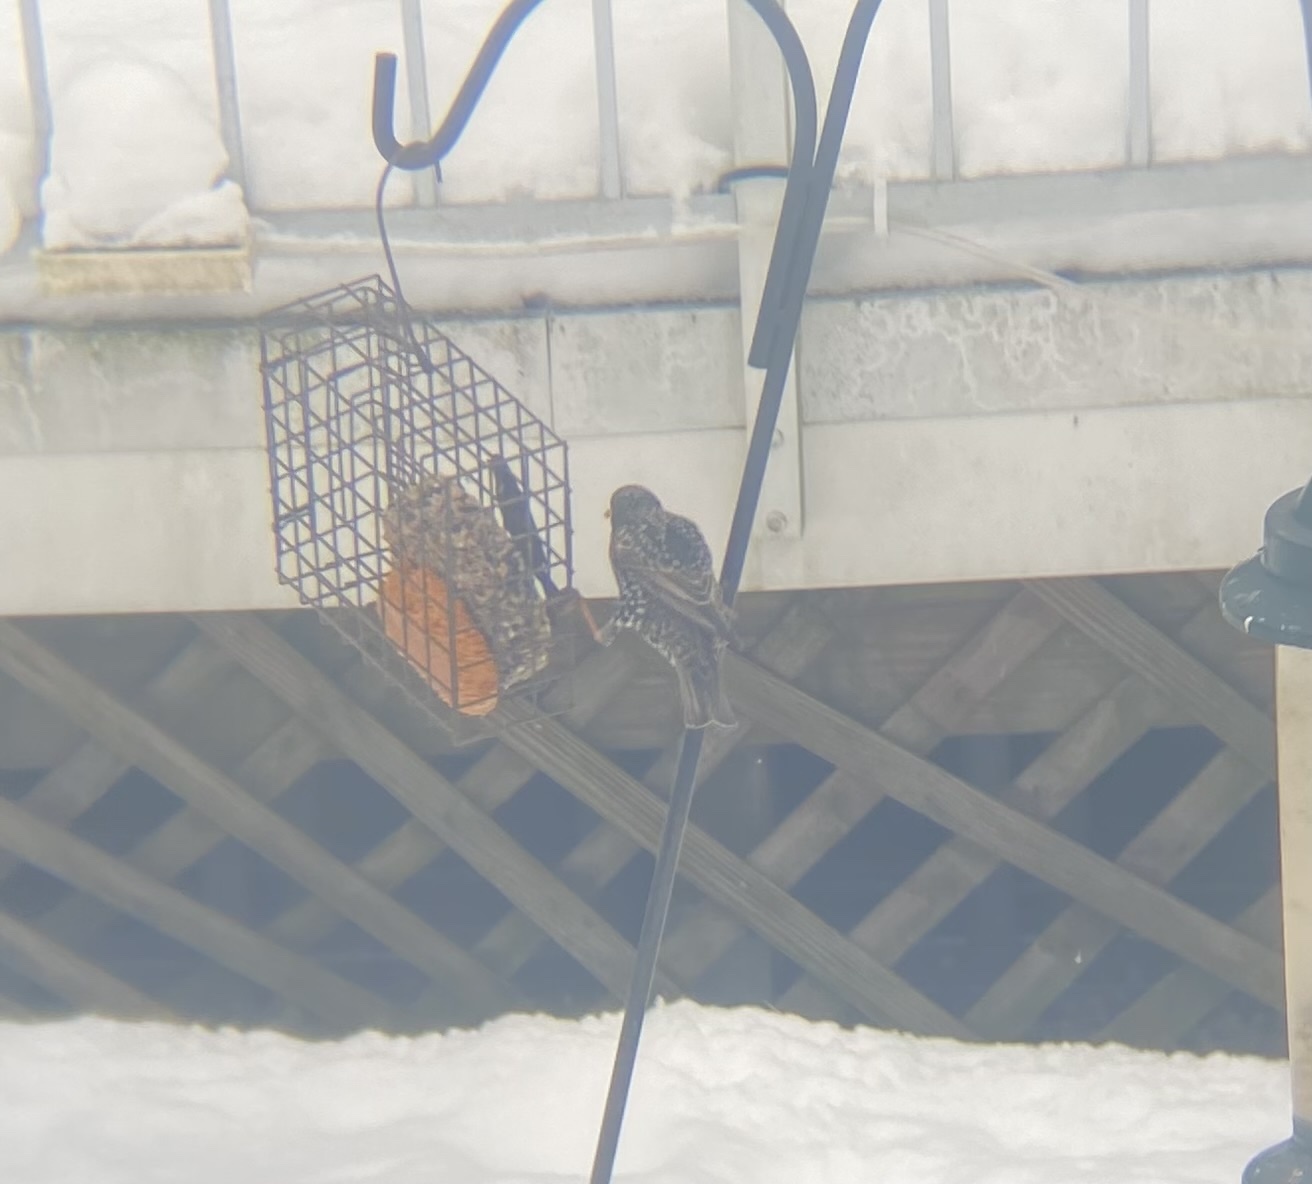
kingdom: Animalia
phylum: Chordata
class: Aves
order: Passeriformes
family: Sturnidae
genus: Sturnus
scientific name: Sturnus vulgaris
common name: Common starling
